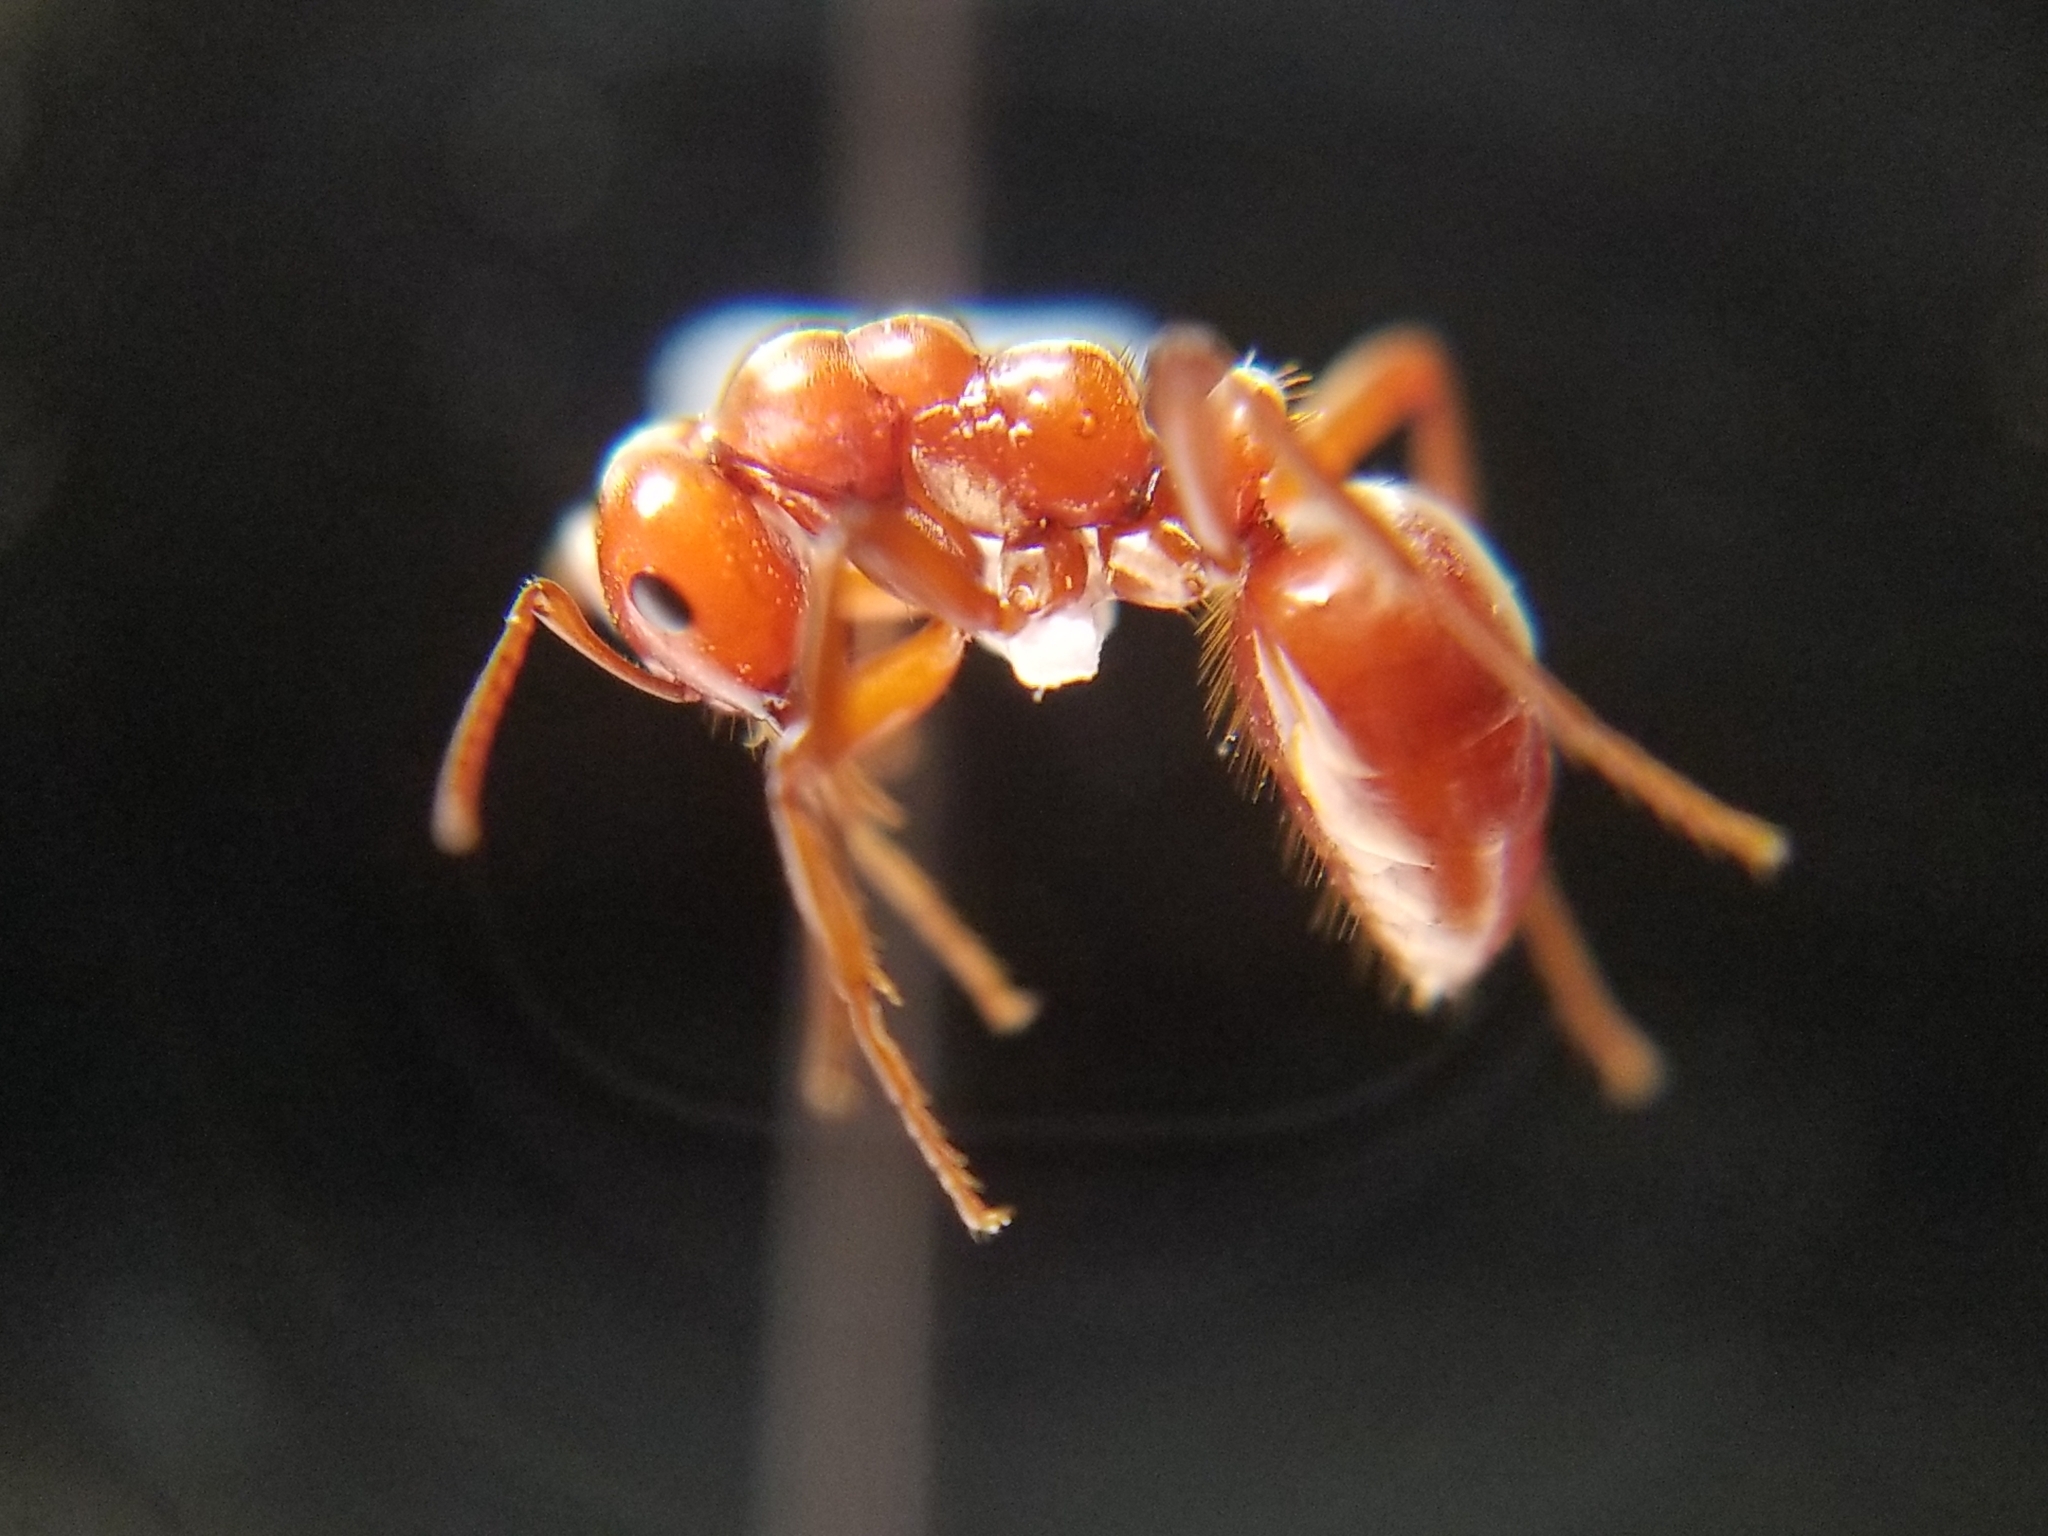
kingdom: Animalia
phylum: Arthropoda
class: Insecta
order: Hymenoptera
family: Formicidae
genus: Polyergus
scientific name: Polyergus mexicanus
